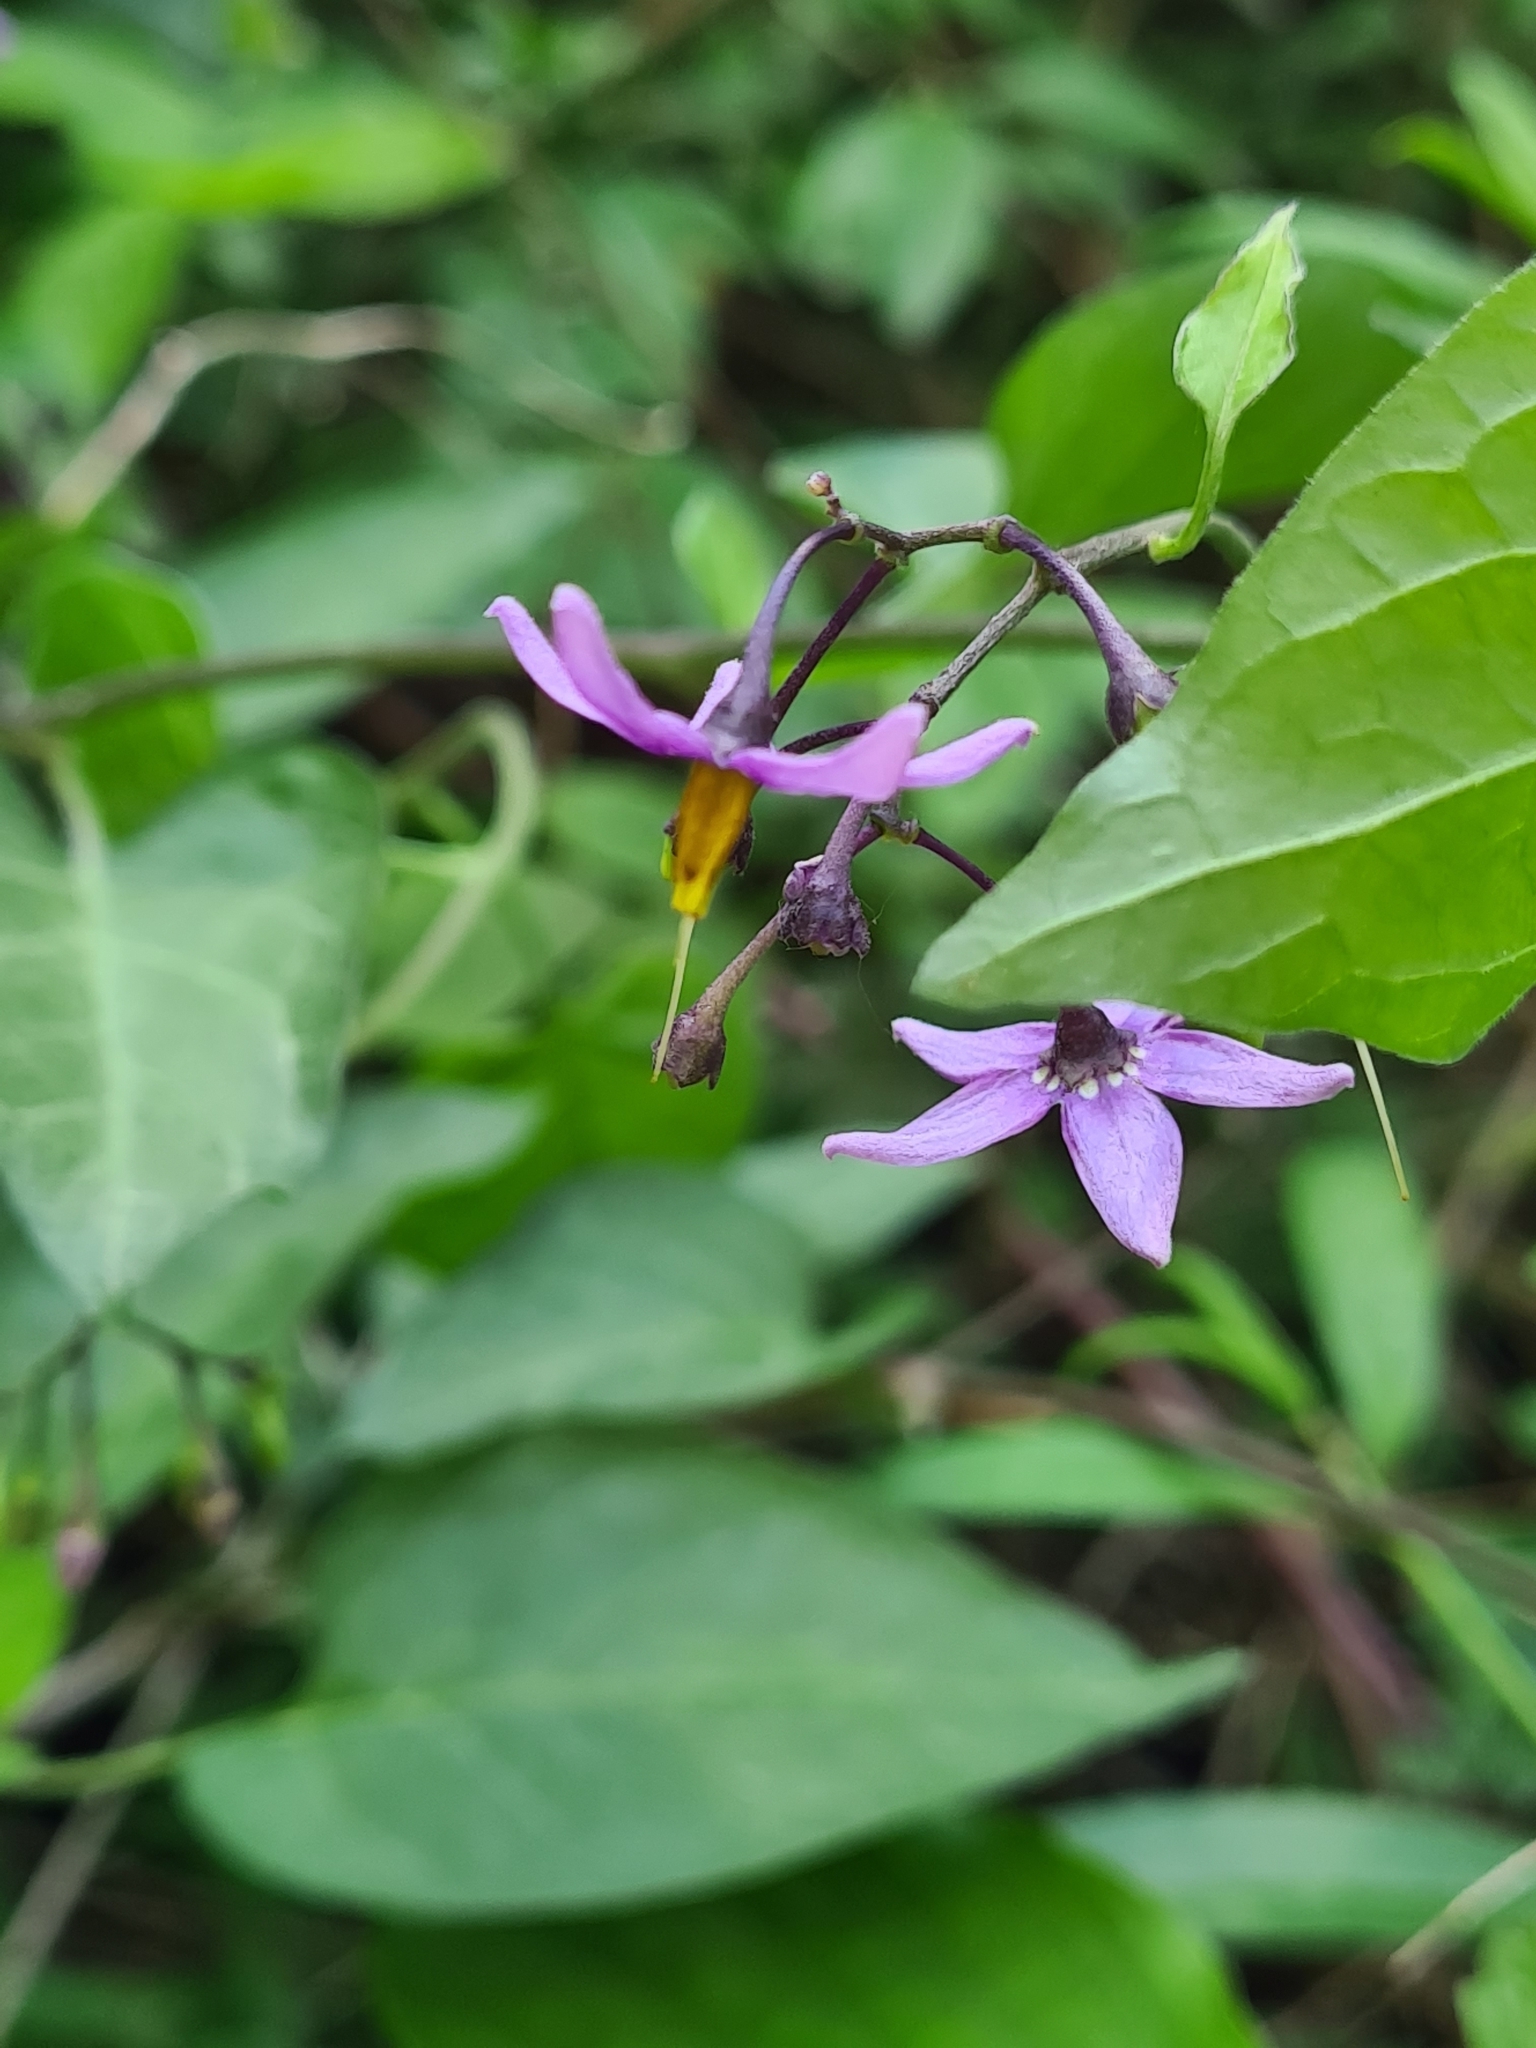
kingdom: Plantae
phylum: Tracheophyta
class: Magnoliopsida
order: Solanales
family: Solanaceae
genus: Solanum
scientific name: Solanum dulcamara
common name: Climbing nightshade
